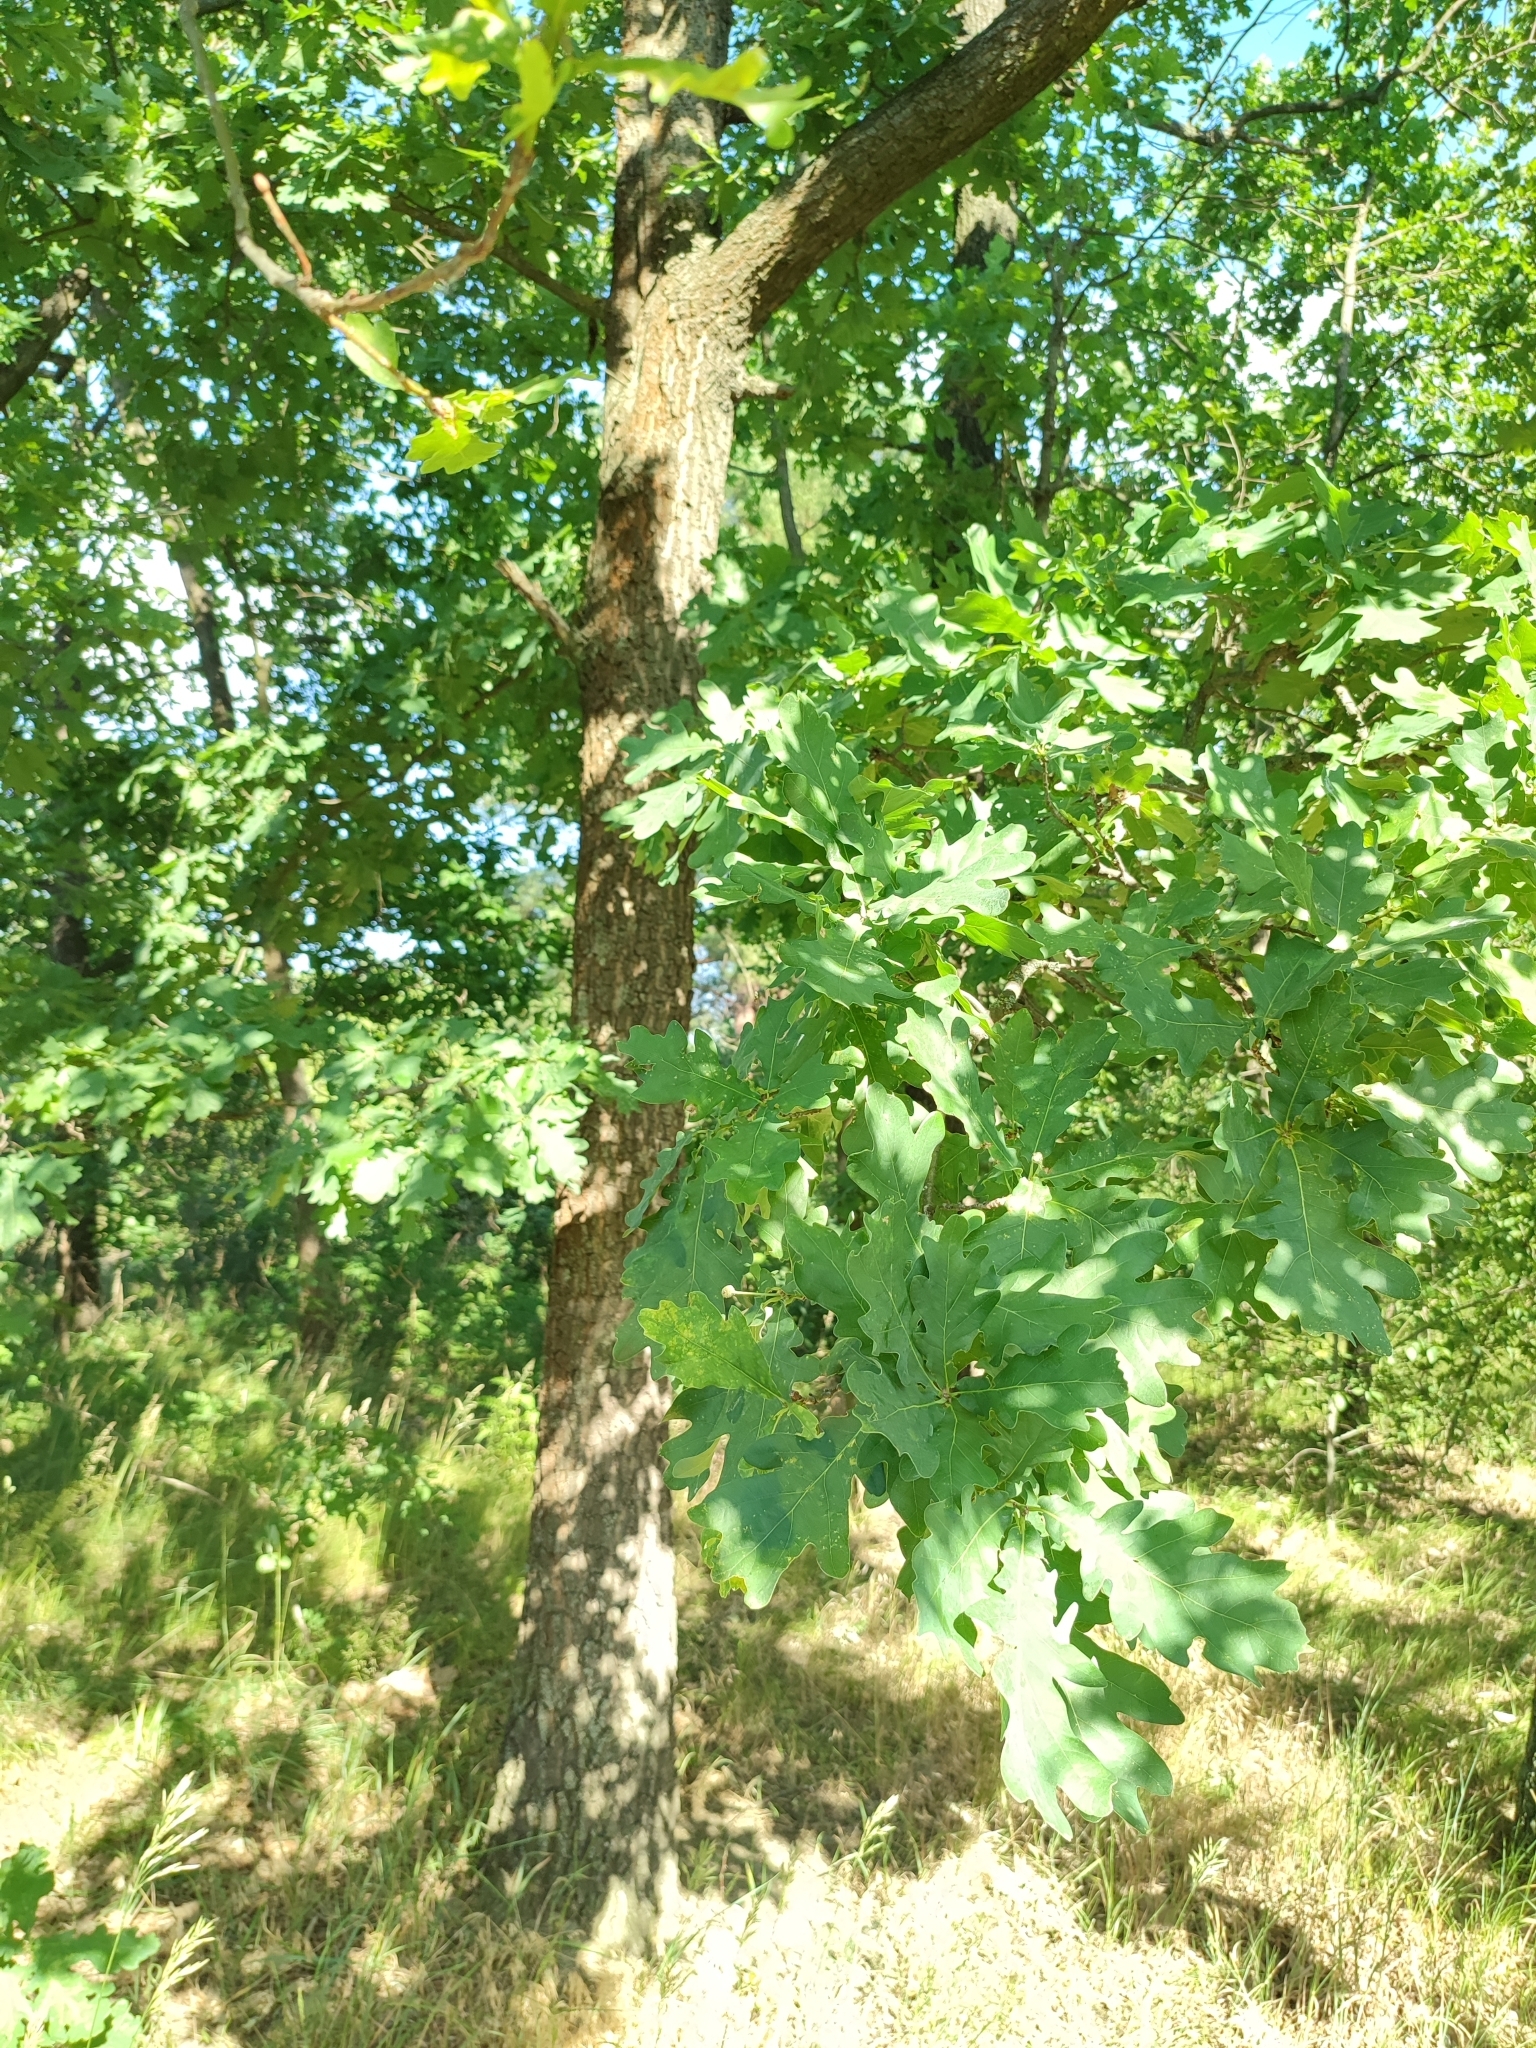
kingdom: Plantae
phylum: Tracheophyta
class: Magnoliopsida
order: Fagales
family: Fagaceae
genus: Quercus
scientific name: Quercus robur
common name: Pedunculate oak
